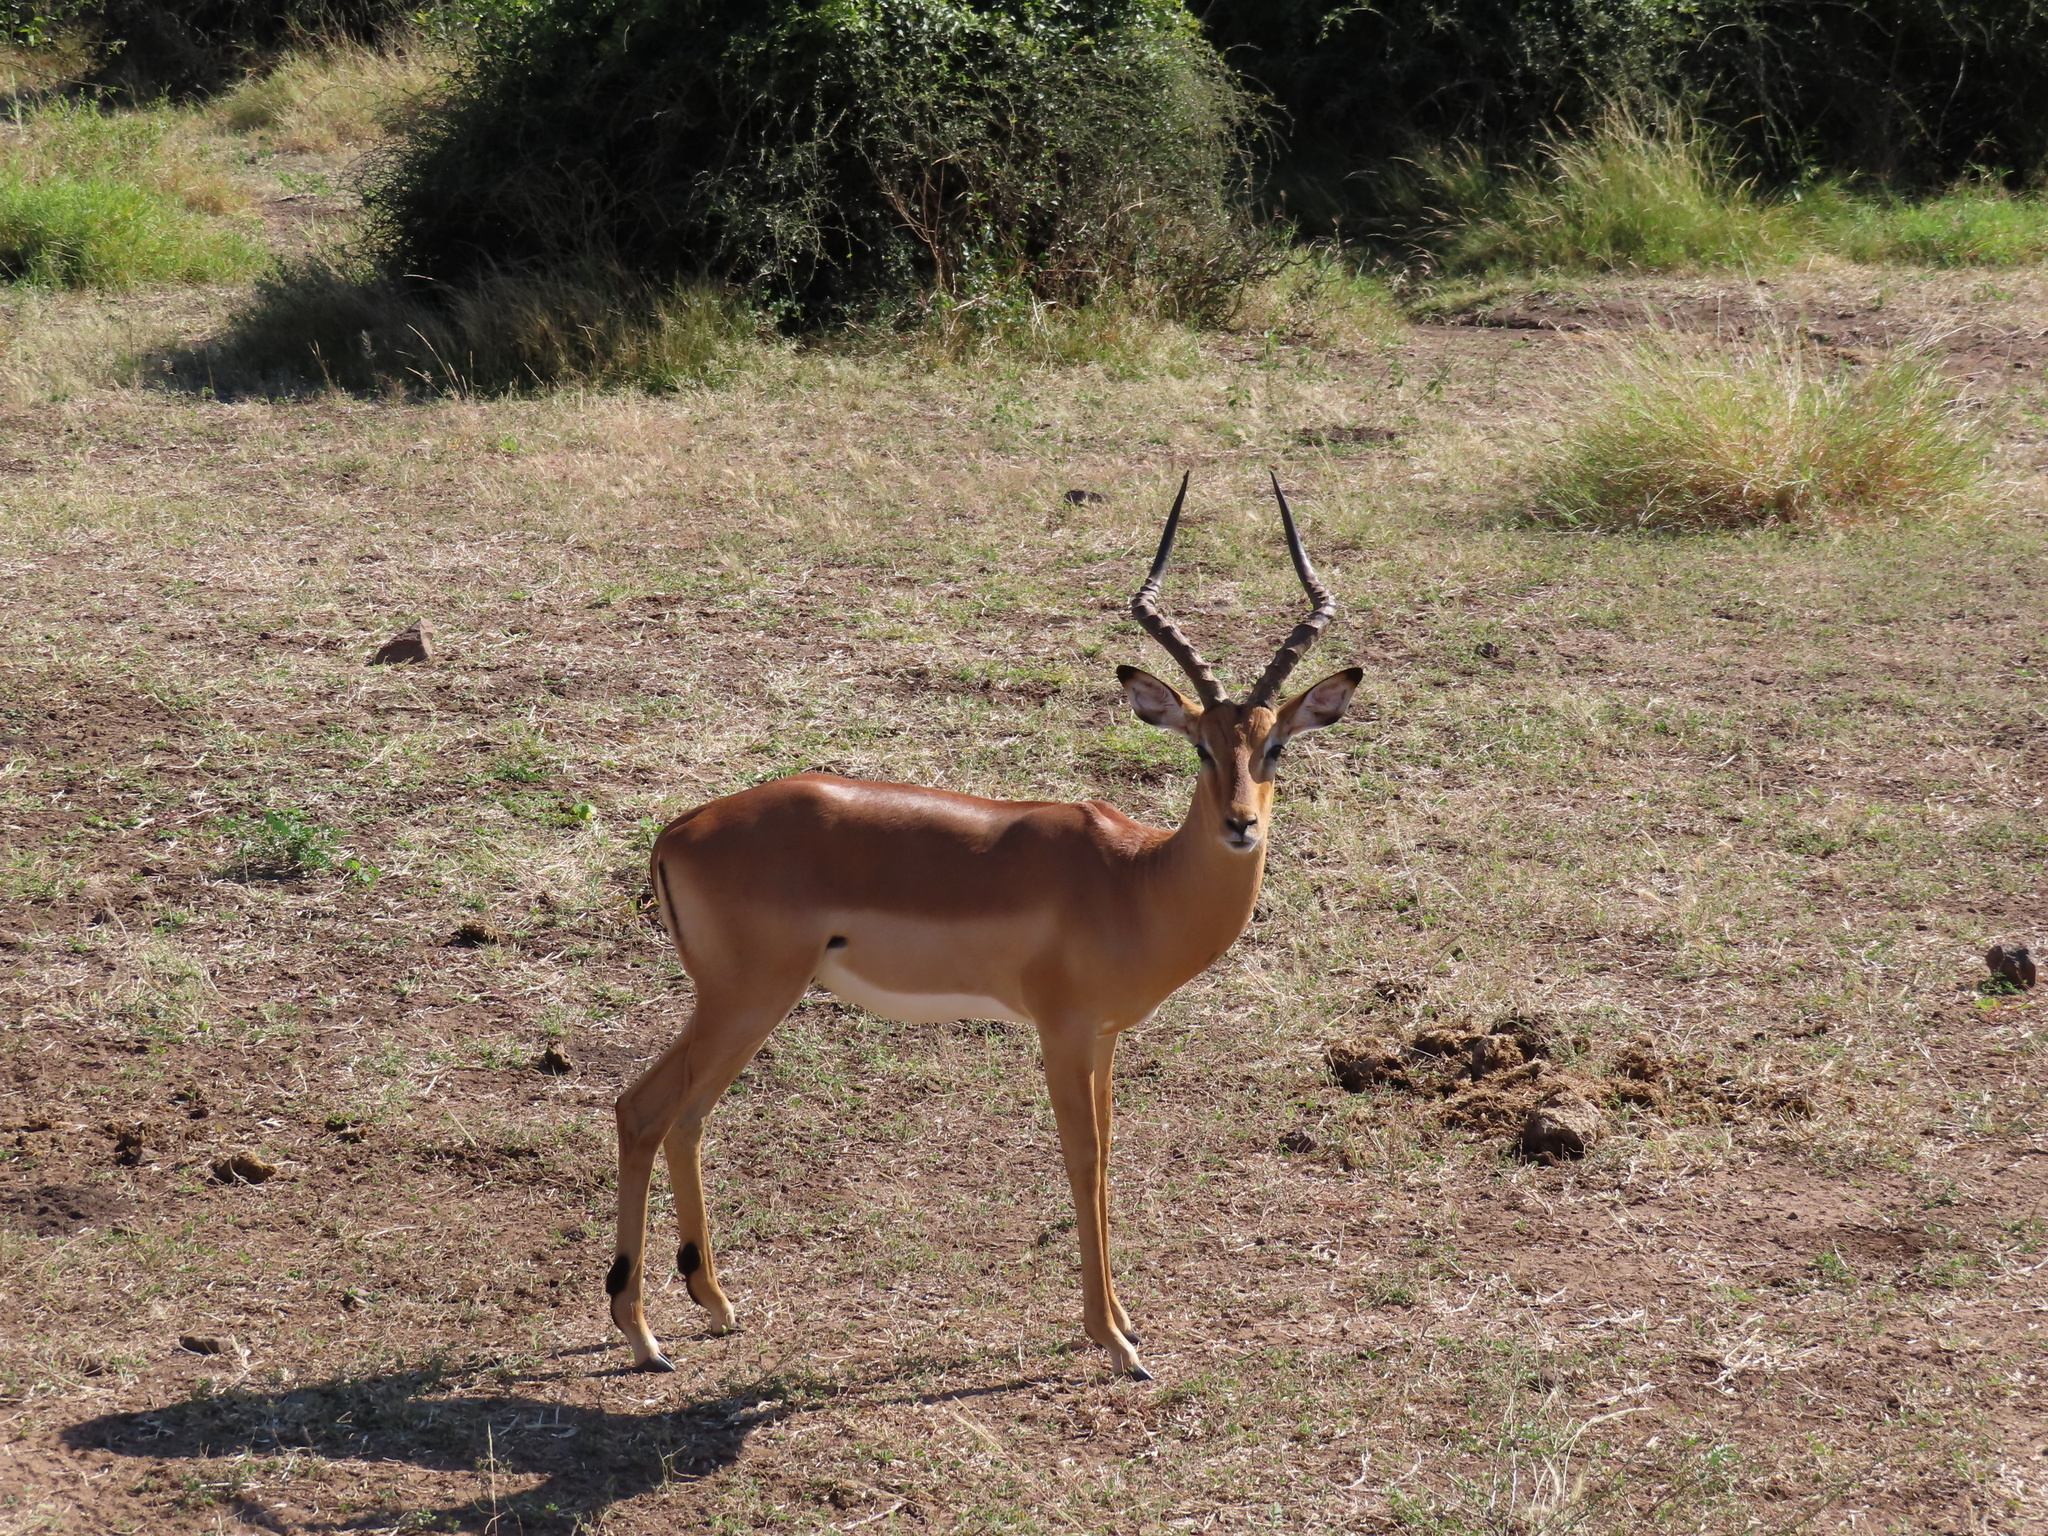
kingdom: Animalia
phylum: Chordata
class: Mammalia
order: Artiodactyla
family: Bovidae
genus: Aepyceros
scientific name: Aepyceros melampus
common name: Impala
